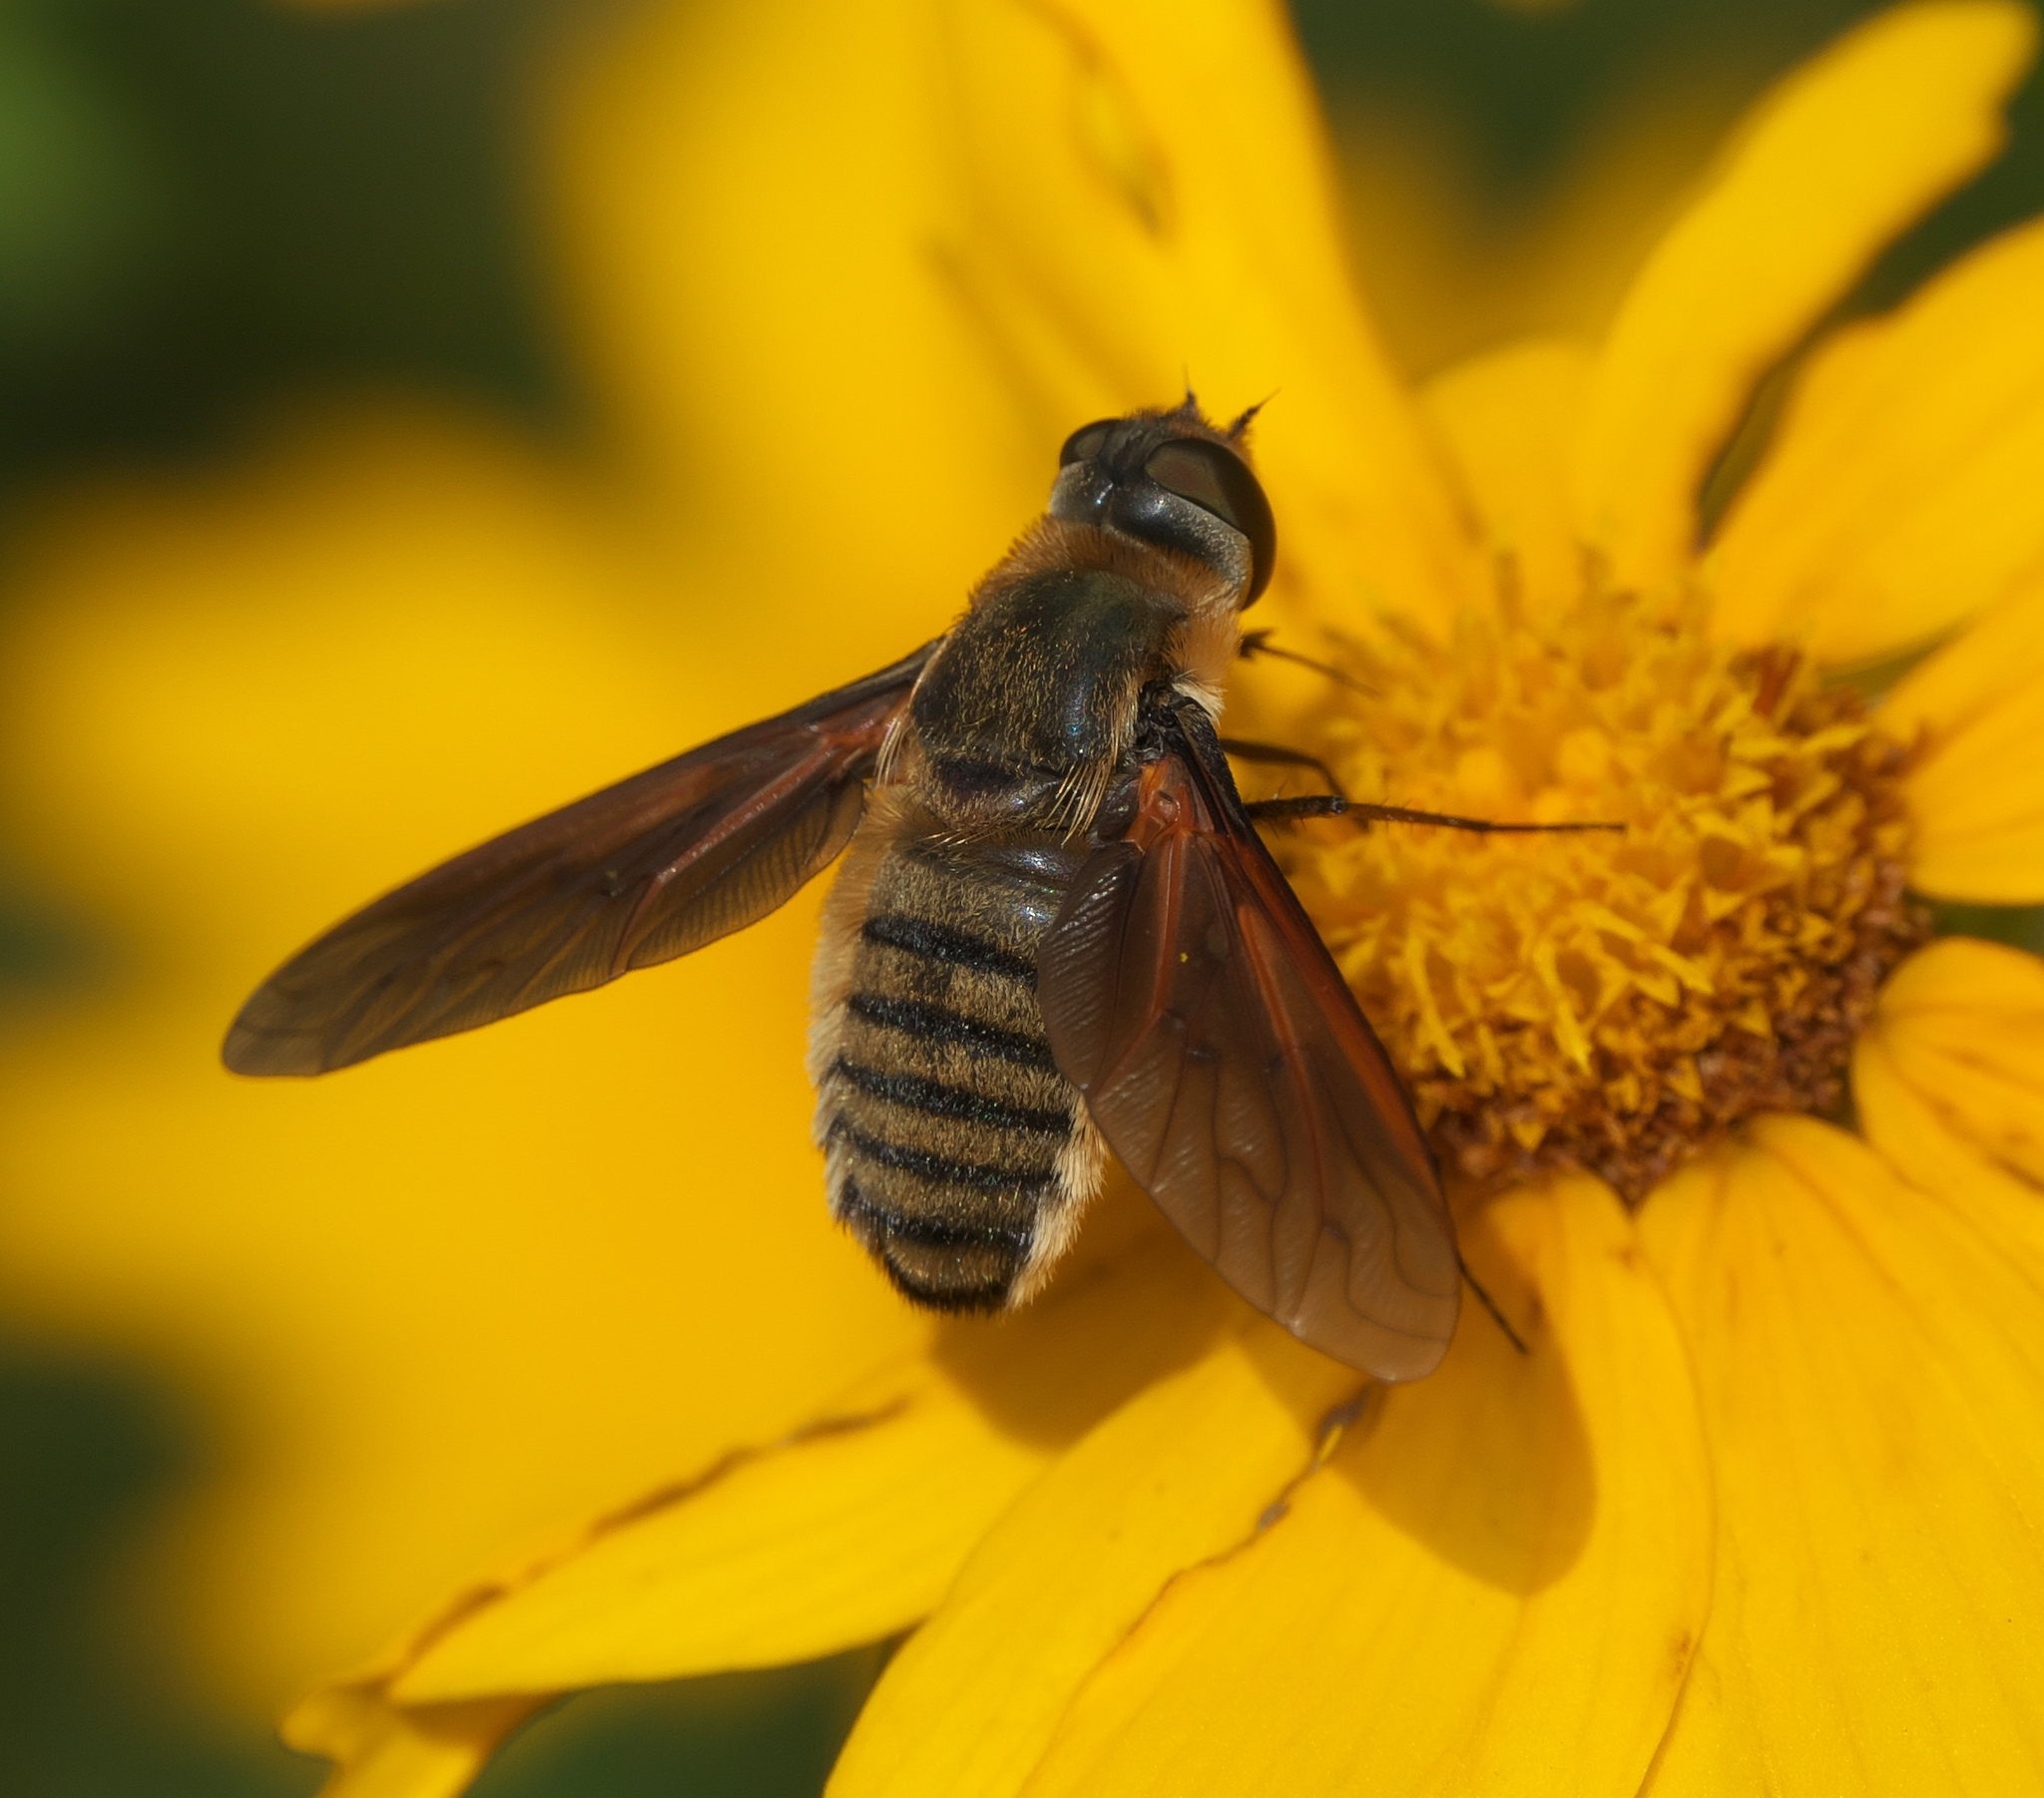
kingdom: Animalia
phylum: Arthropoda
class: Insecta
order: Diptera
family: Bombyliidae
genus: Poecilanthrax
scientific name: Poecilanthrax lucifer
